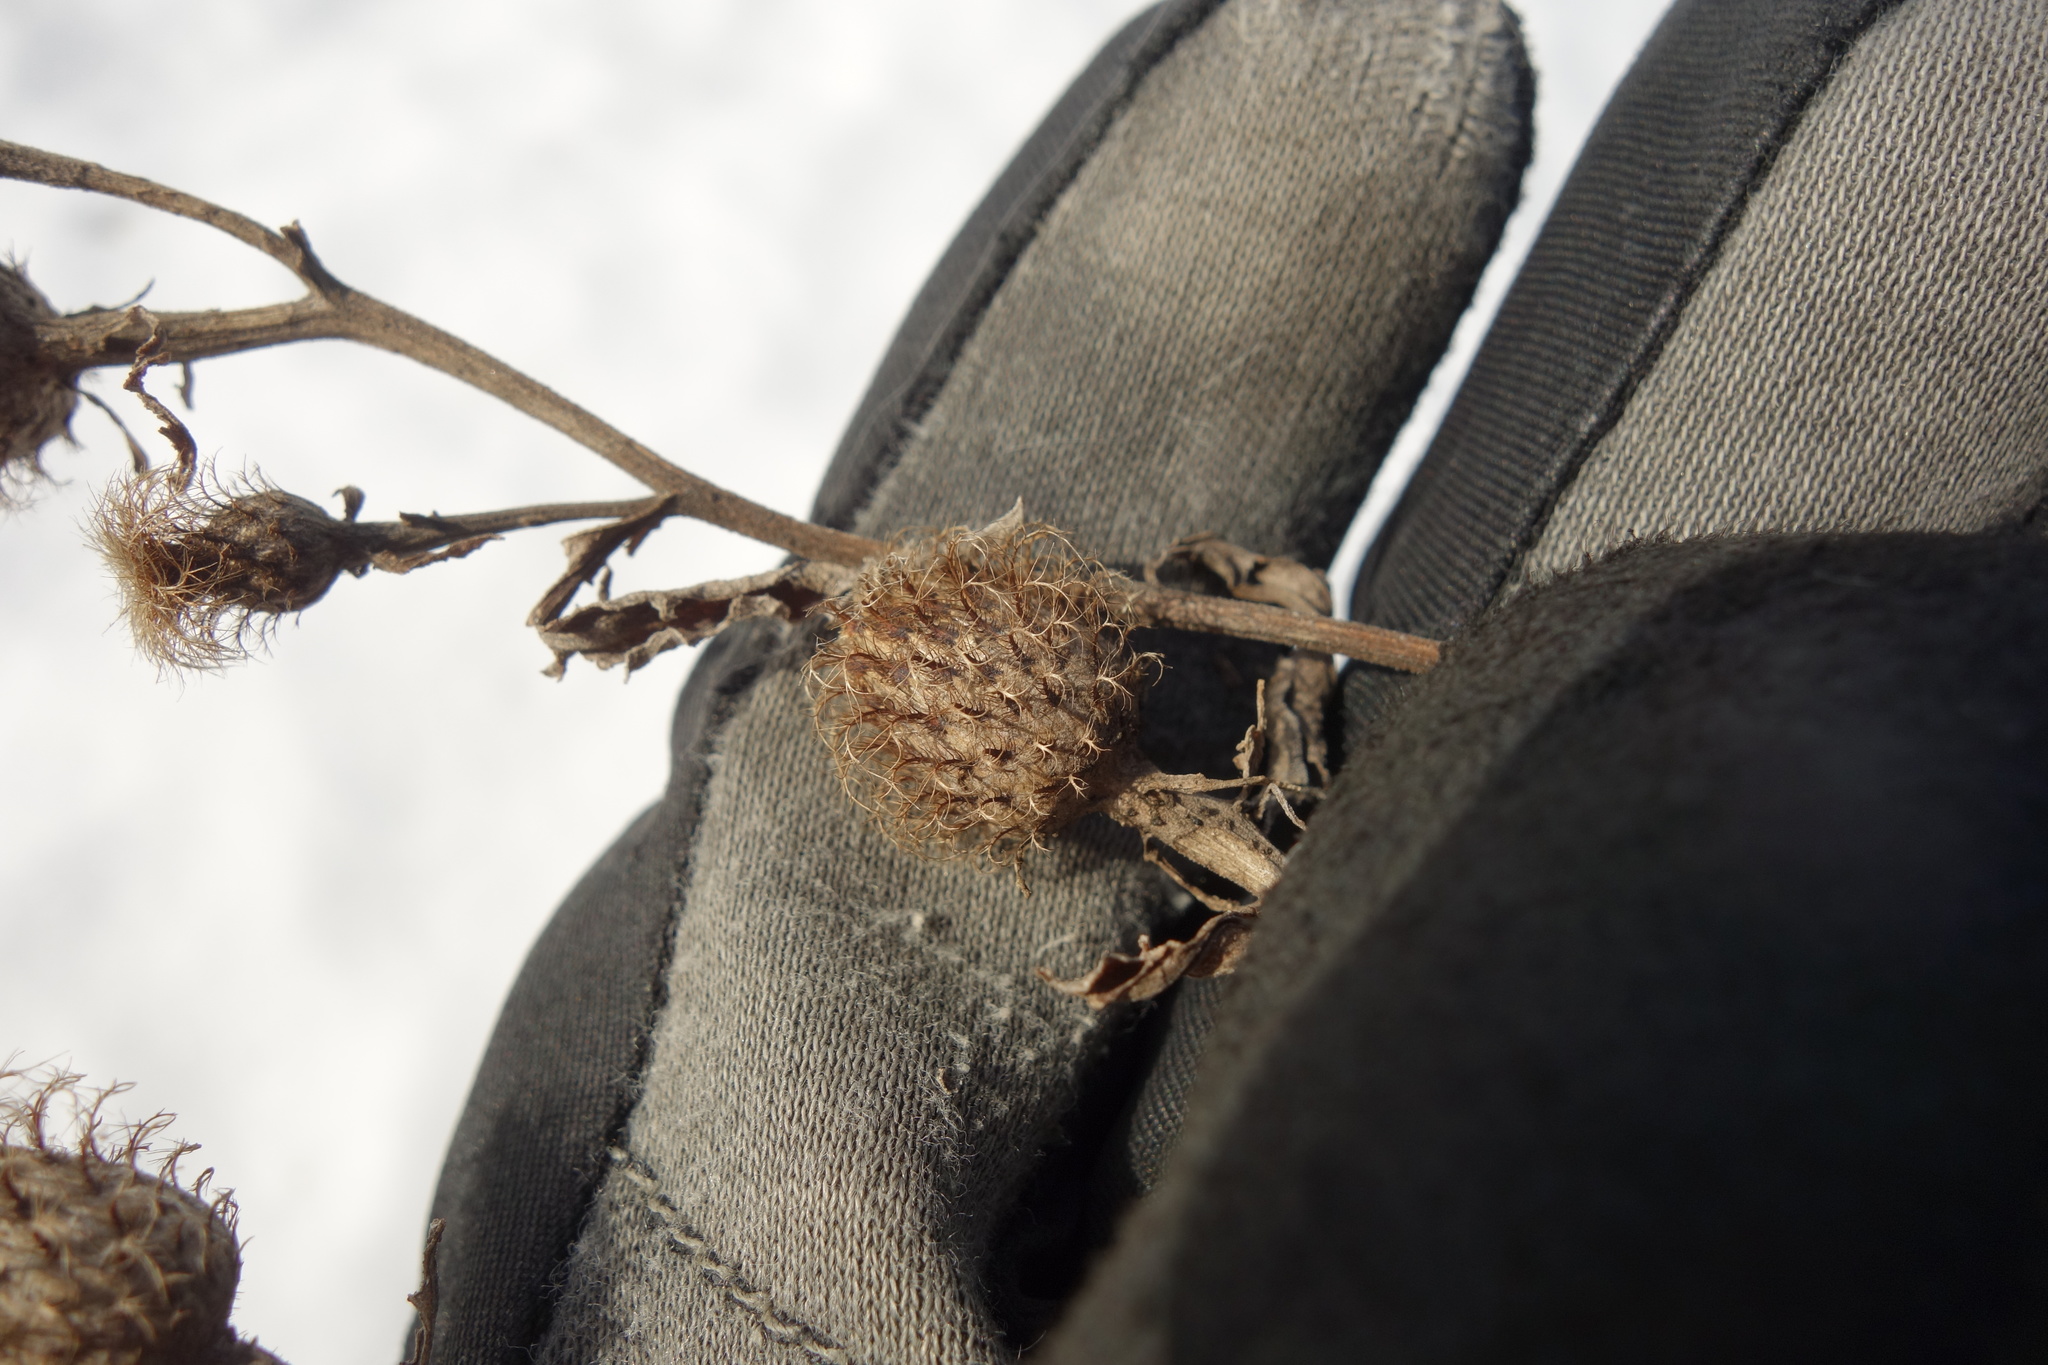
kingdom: Plantae
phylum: Tracheophyta
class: Magnoliopsida
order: Asterales
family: Asteraceae
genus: Centaurea
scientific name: Centaurea pseudophrygia
